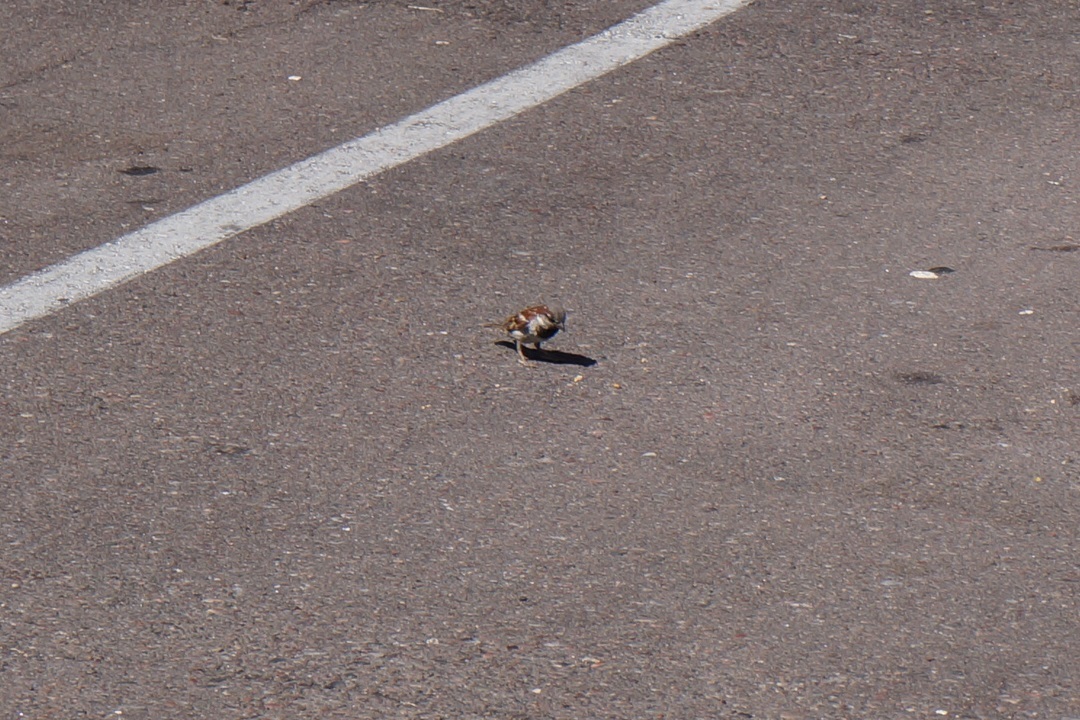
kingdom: Animalia
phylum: Chordata
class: Aves
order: Passeriformes
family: Passeridae
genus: Passer
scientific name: Passer domesticus
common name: House sparrow
